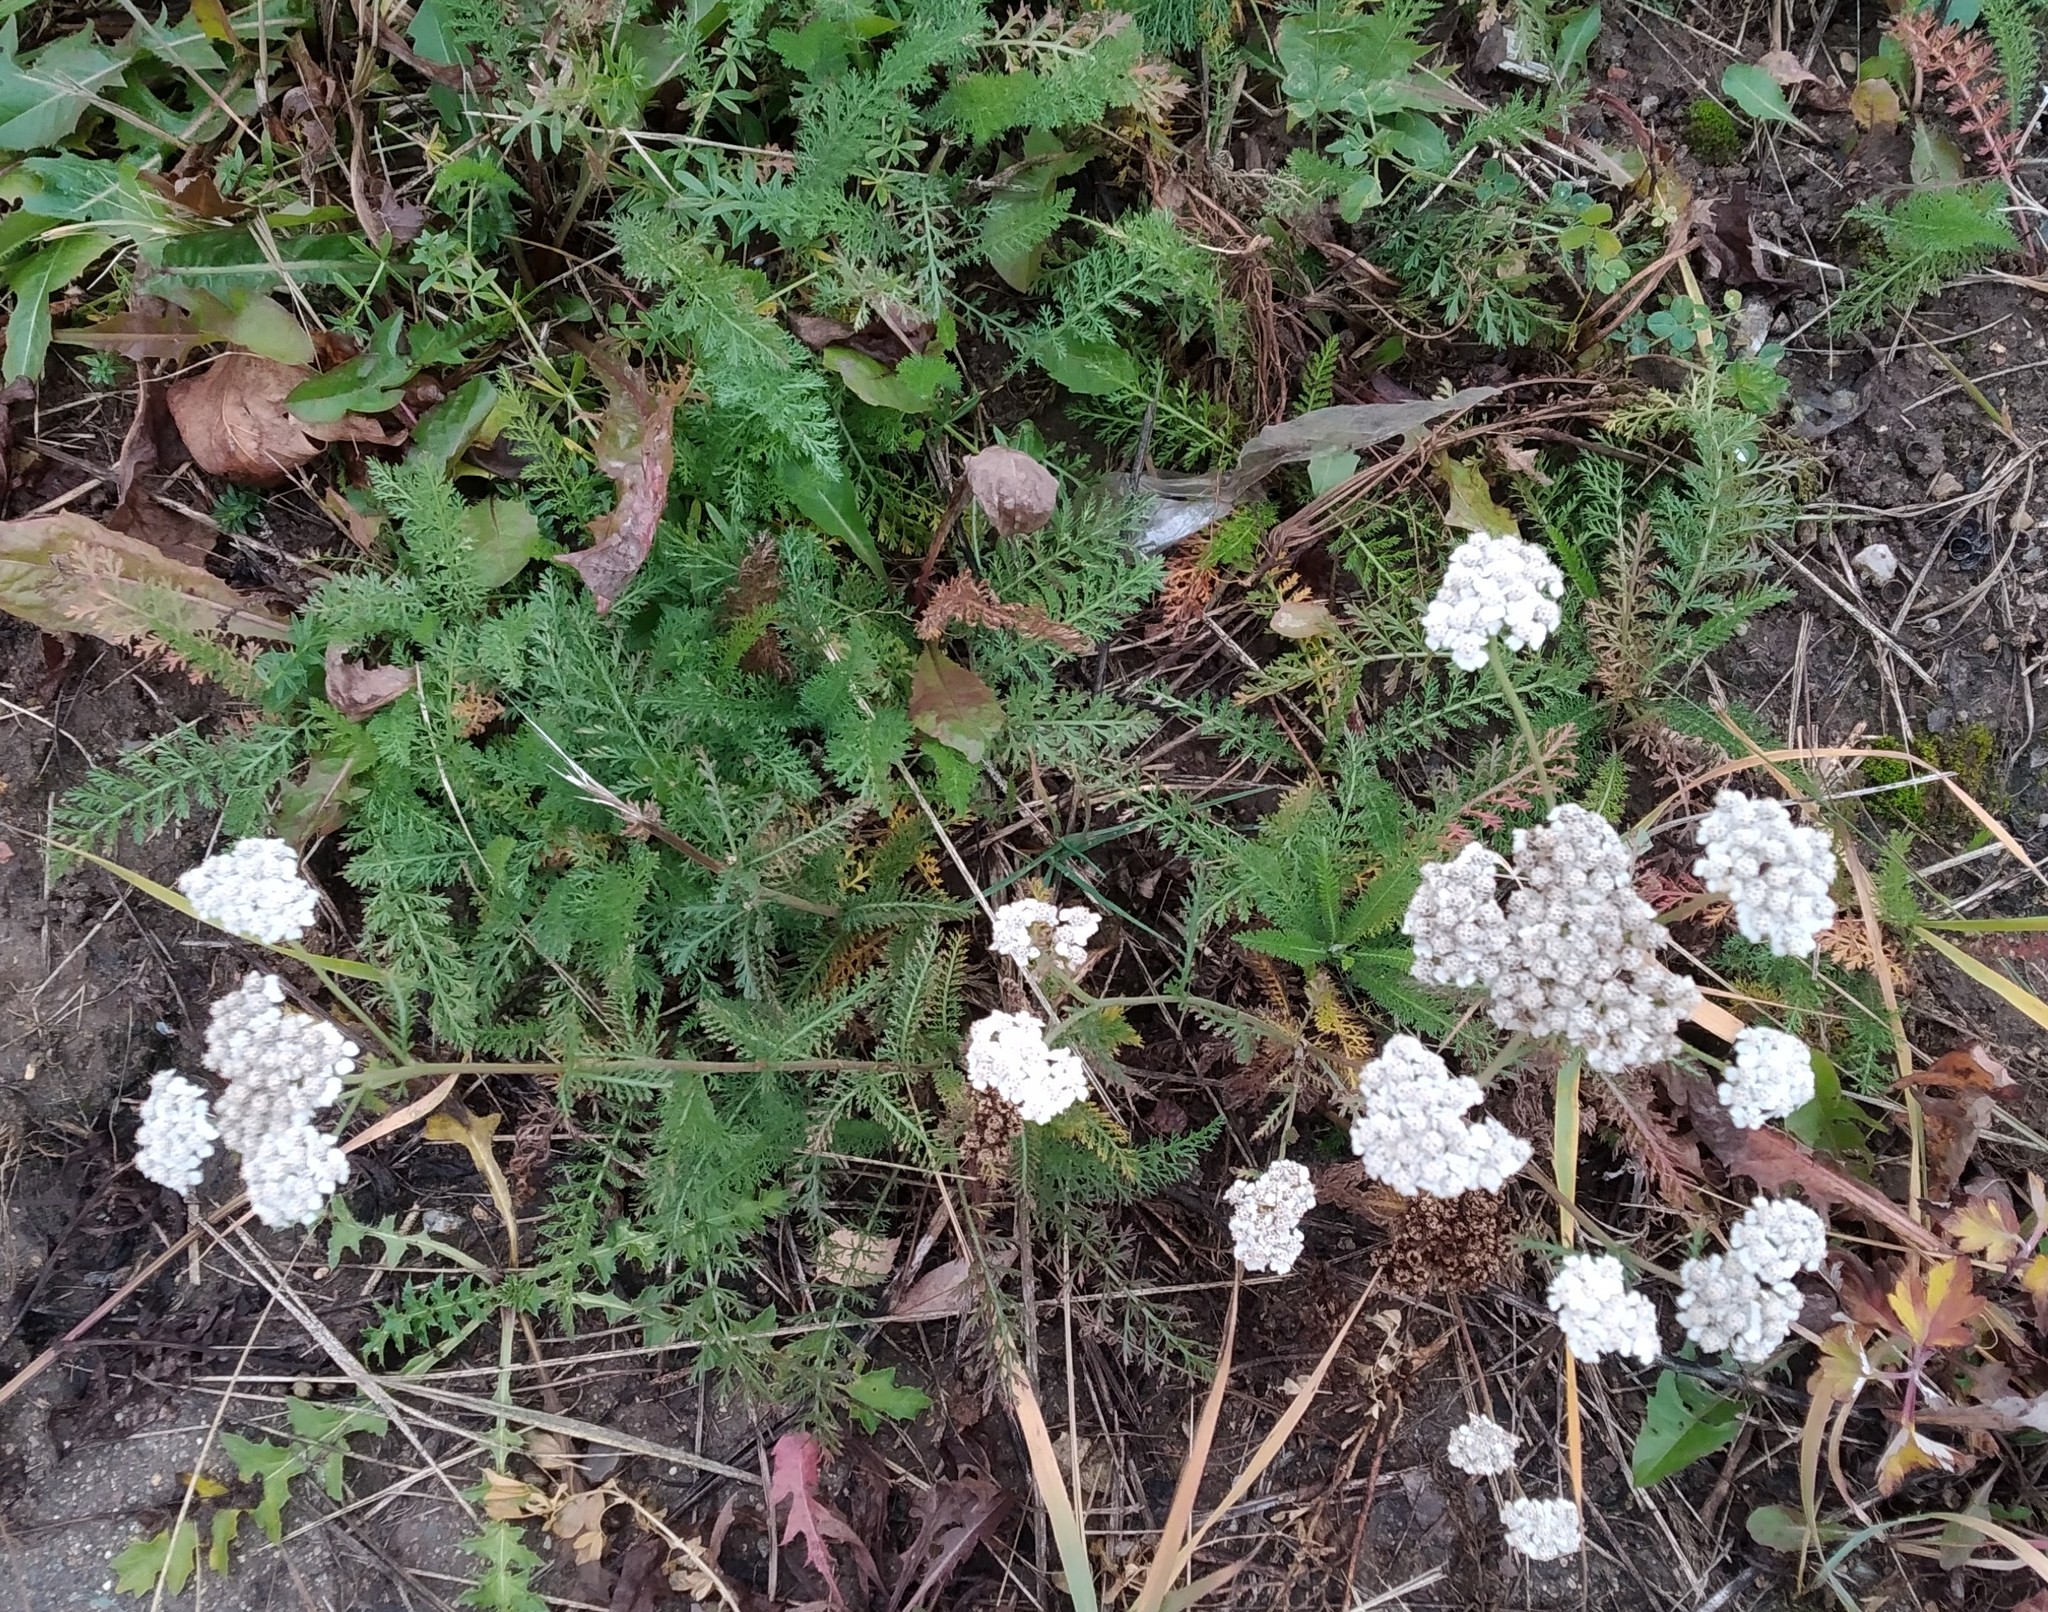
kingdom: Plantae
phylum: Tracheophyta
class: Magnoliopsida
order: Asterales
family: Asteraceae
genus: Achillea
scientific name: Achillea millefolium
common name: Yarrow
